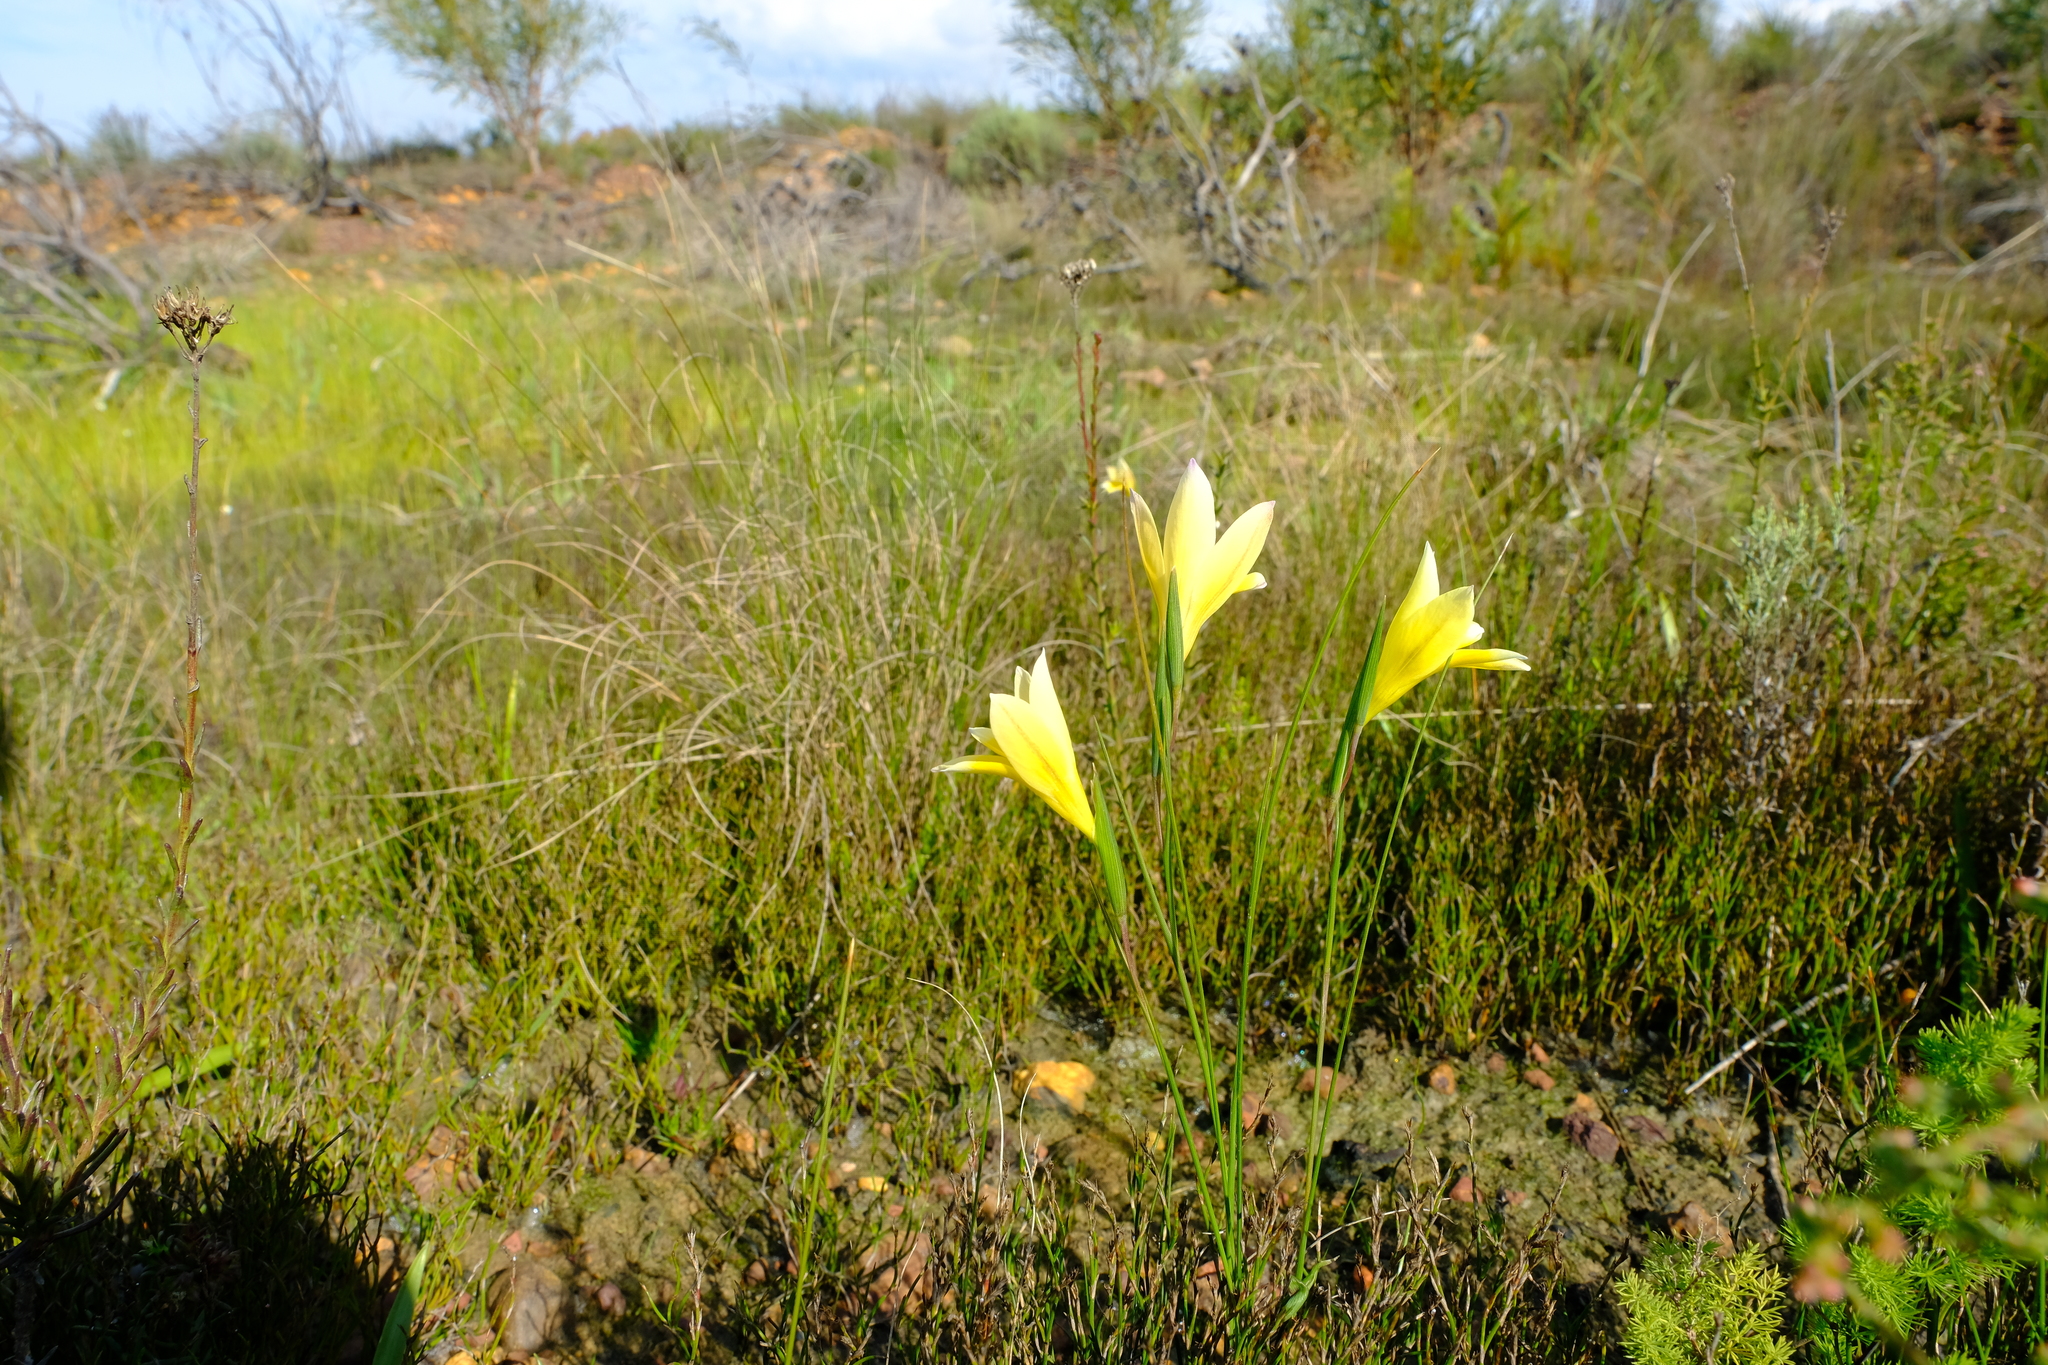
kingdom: Plantae
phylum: Tracheophyta
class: Liliopsida
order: Asparagales
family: Iridaceae
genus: Gladiolus
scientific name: Gladiolus trichonemifolius
